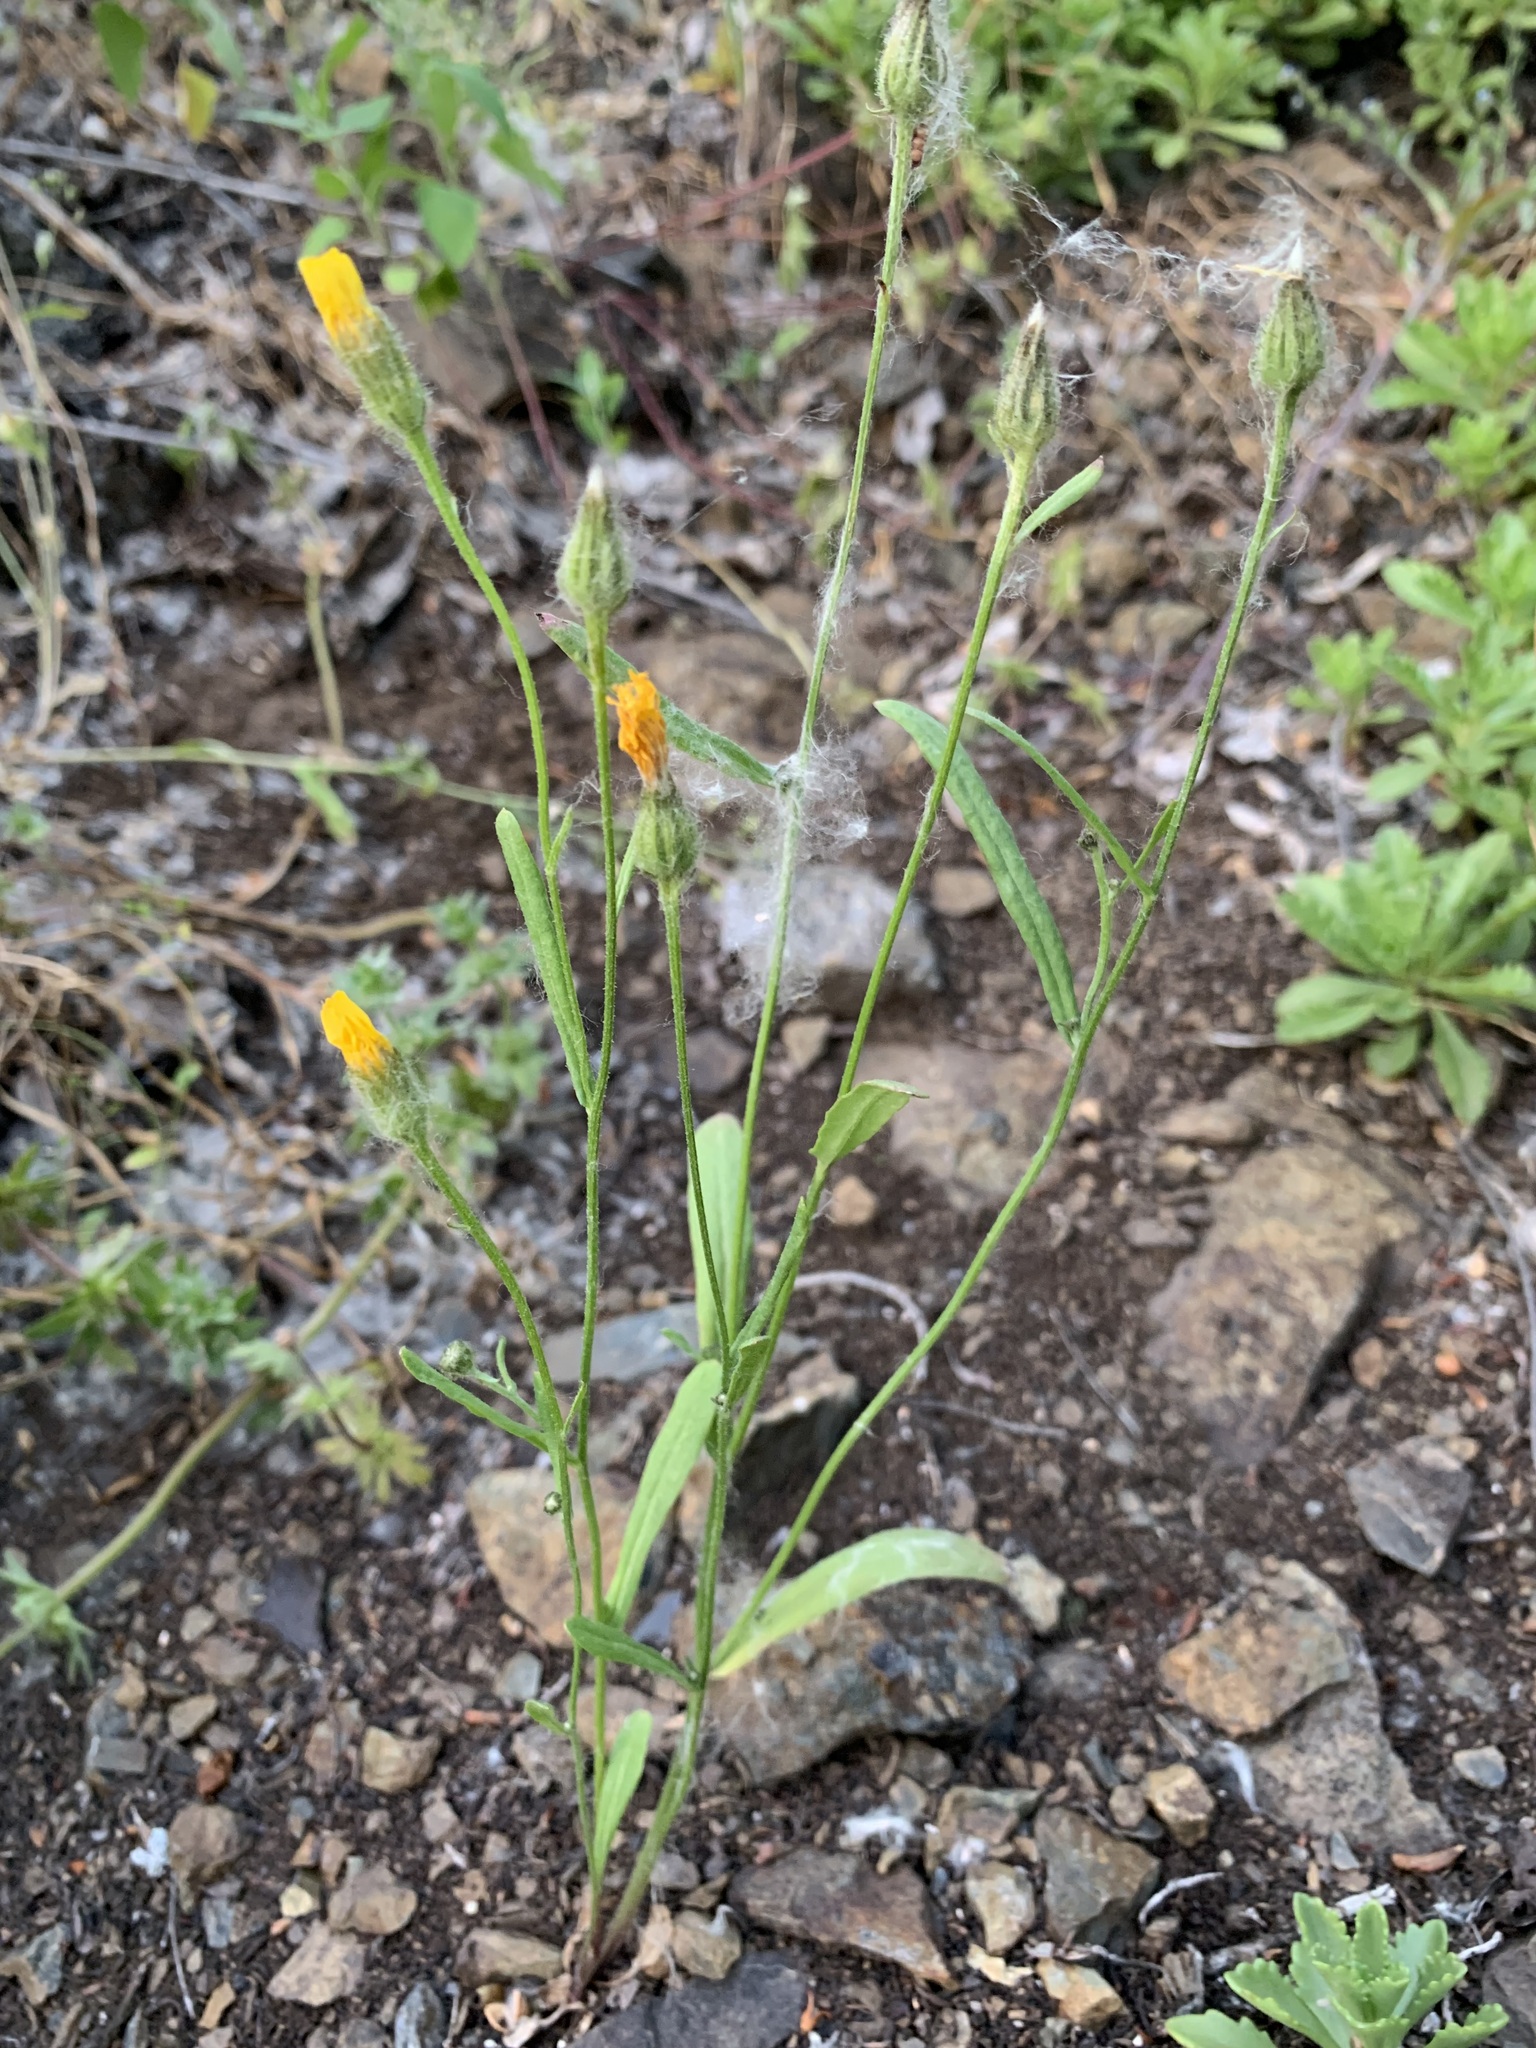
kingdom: Plantae
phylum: Tracheophyta
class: Magnoliopsida
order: Asterales
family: Asteraceae
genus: Crepis
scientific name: Crepis tectorum
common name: Narrow-leaved hawk's-beard
